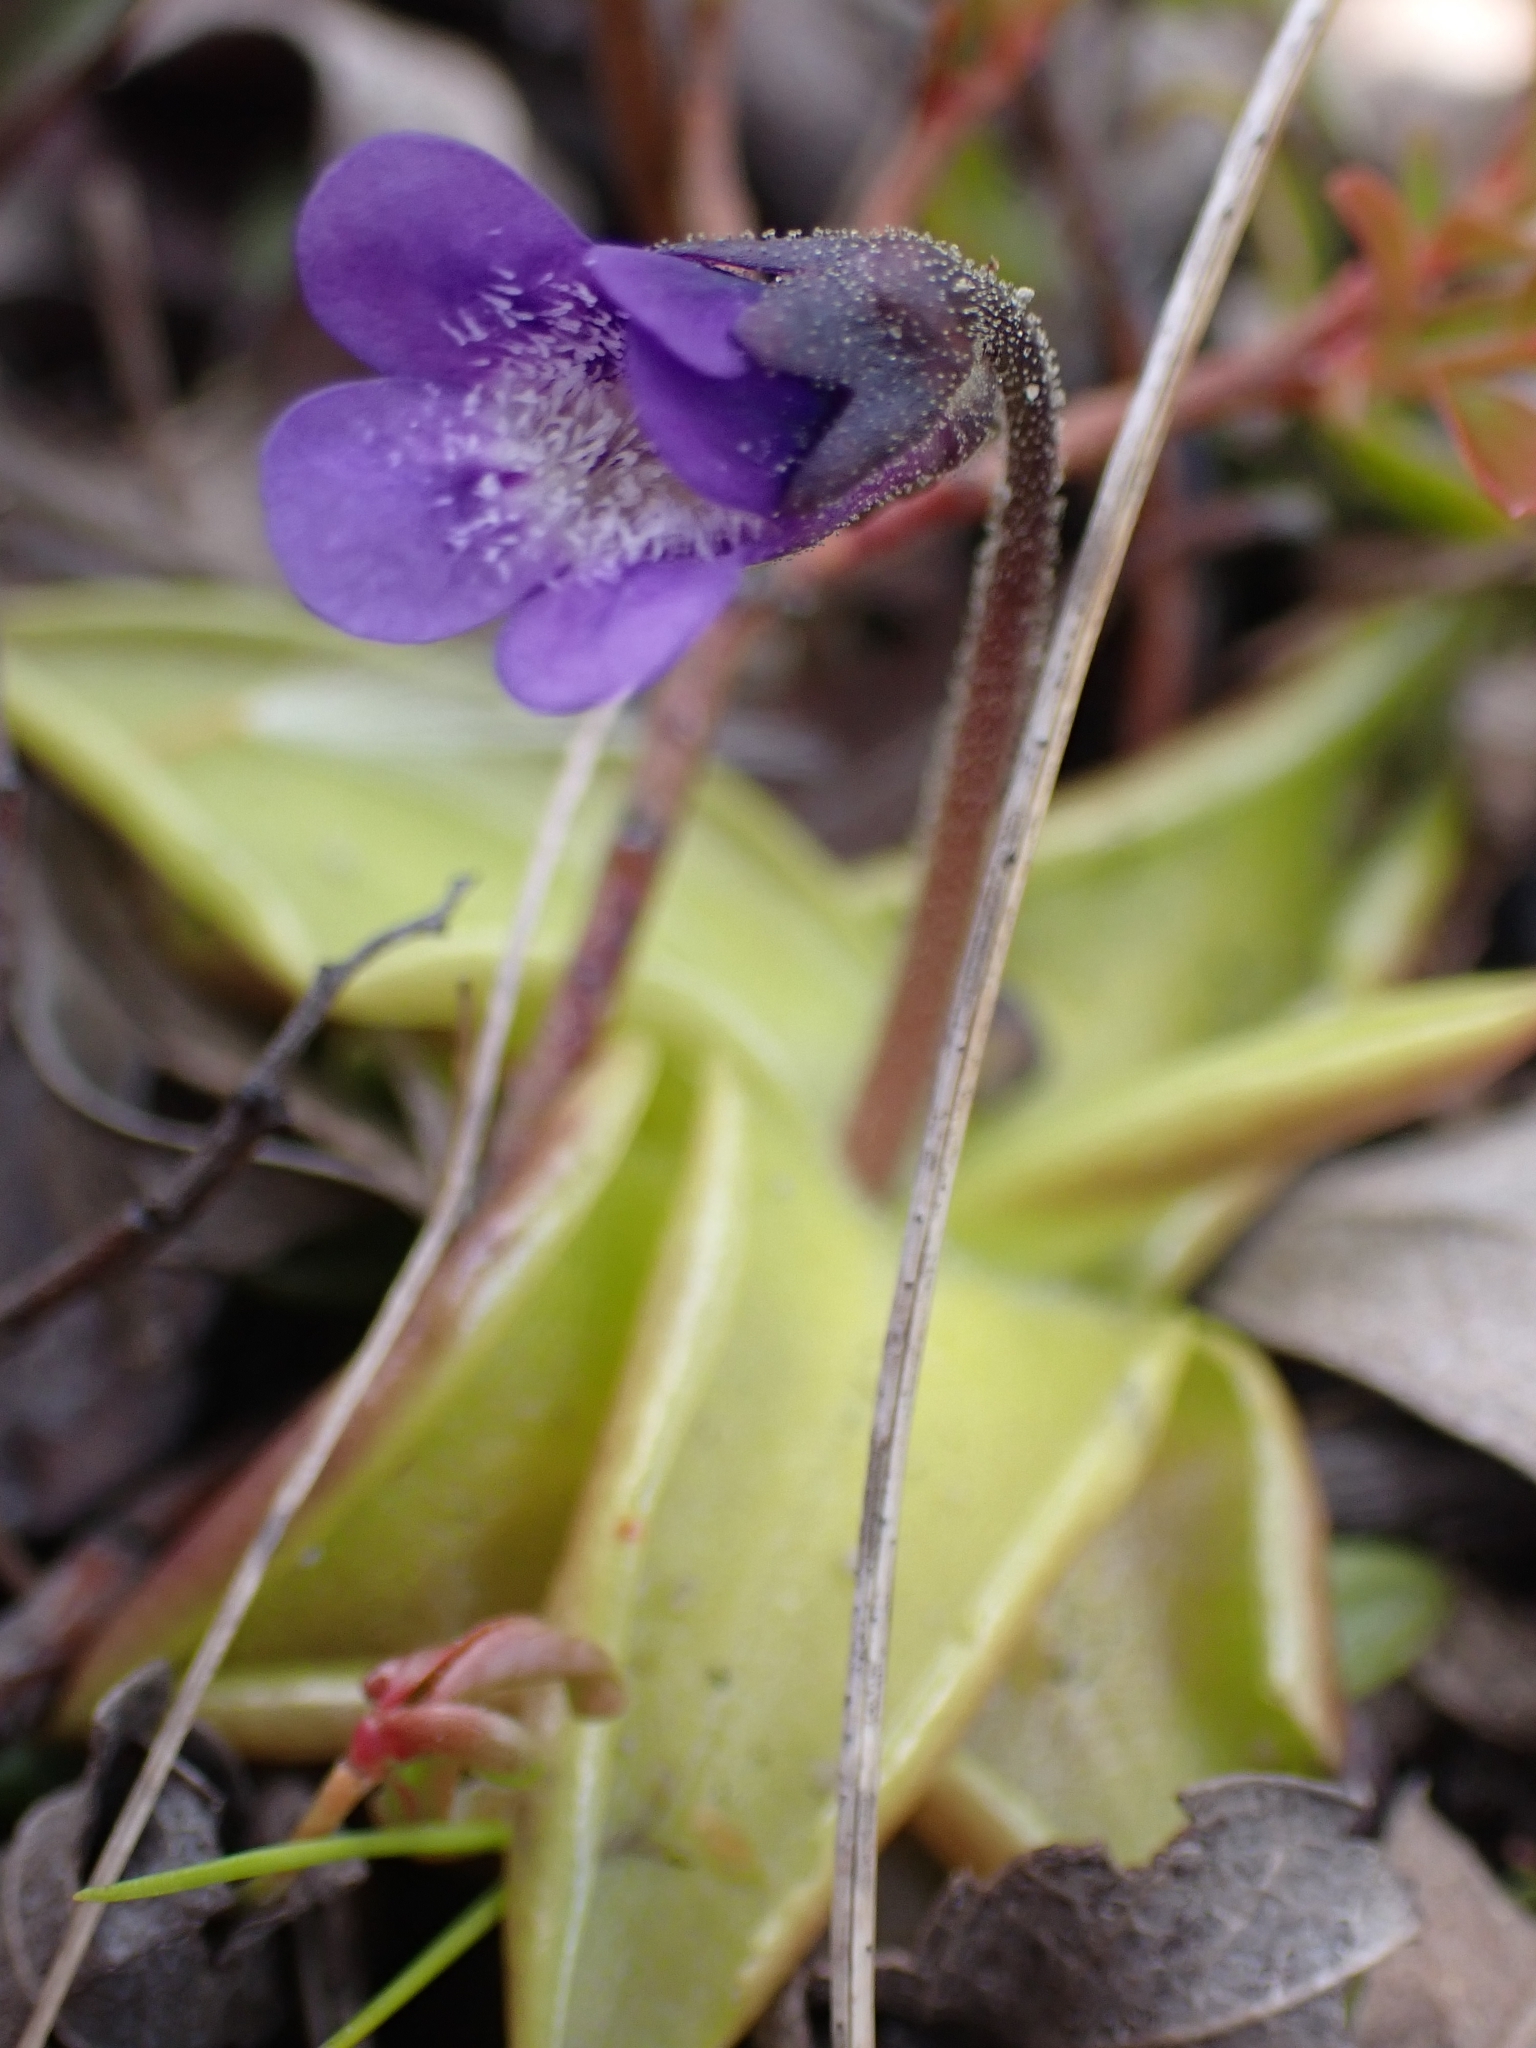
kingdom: Plantae
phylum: Tracheophyta
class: Magnoliopsida
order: Lamiales
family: Lentibulariaceae
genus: Pinguicula
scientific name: Pinguicula vulgaris
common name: Common butterwort
